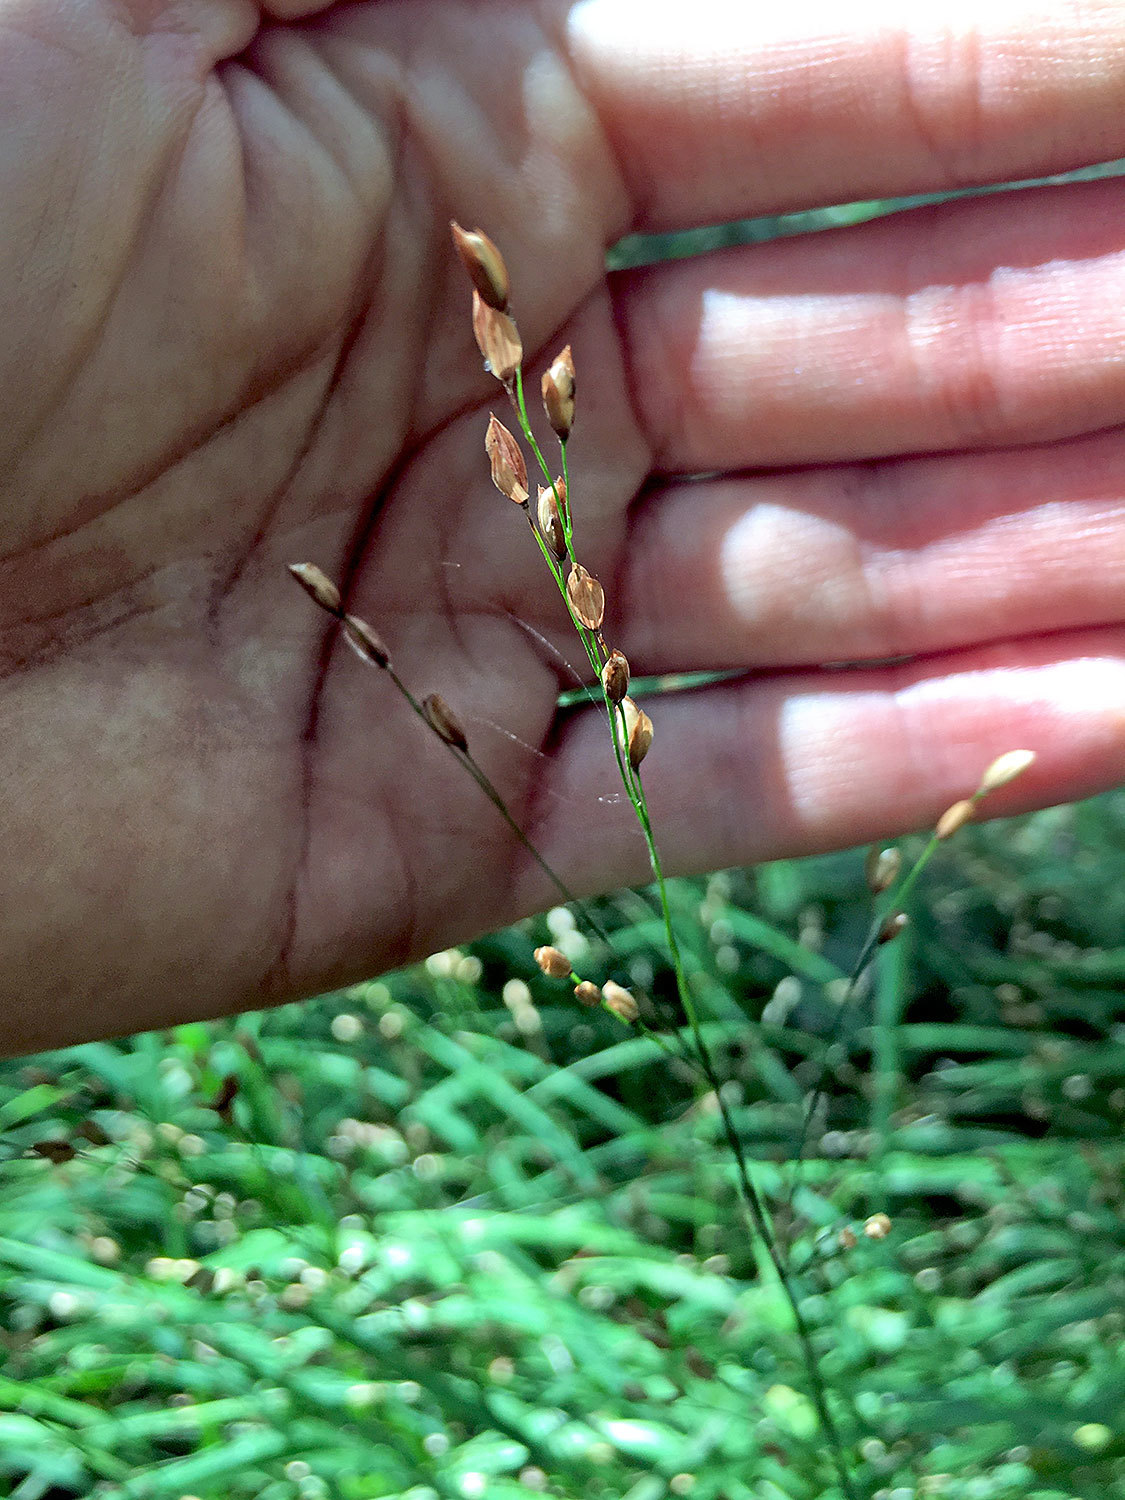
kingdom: Plantae
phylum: Tracheophyta
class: Liliopsida
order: Poales
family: Poaceae
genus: Melica
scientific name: Melica uniflora
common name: Wood melick
